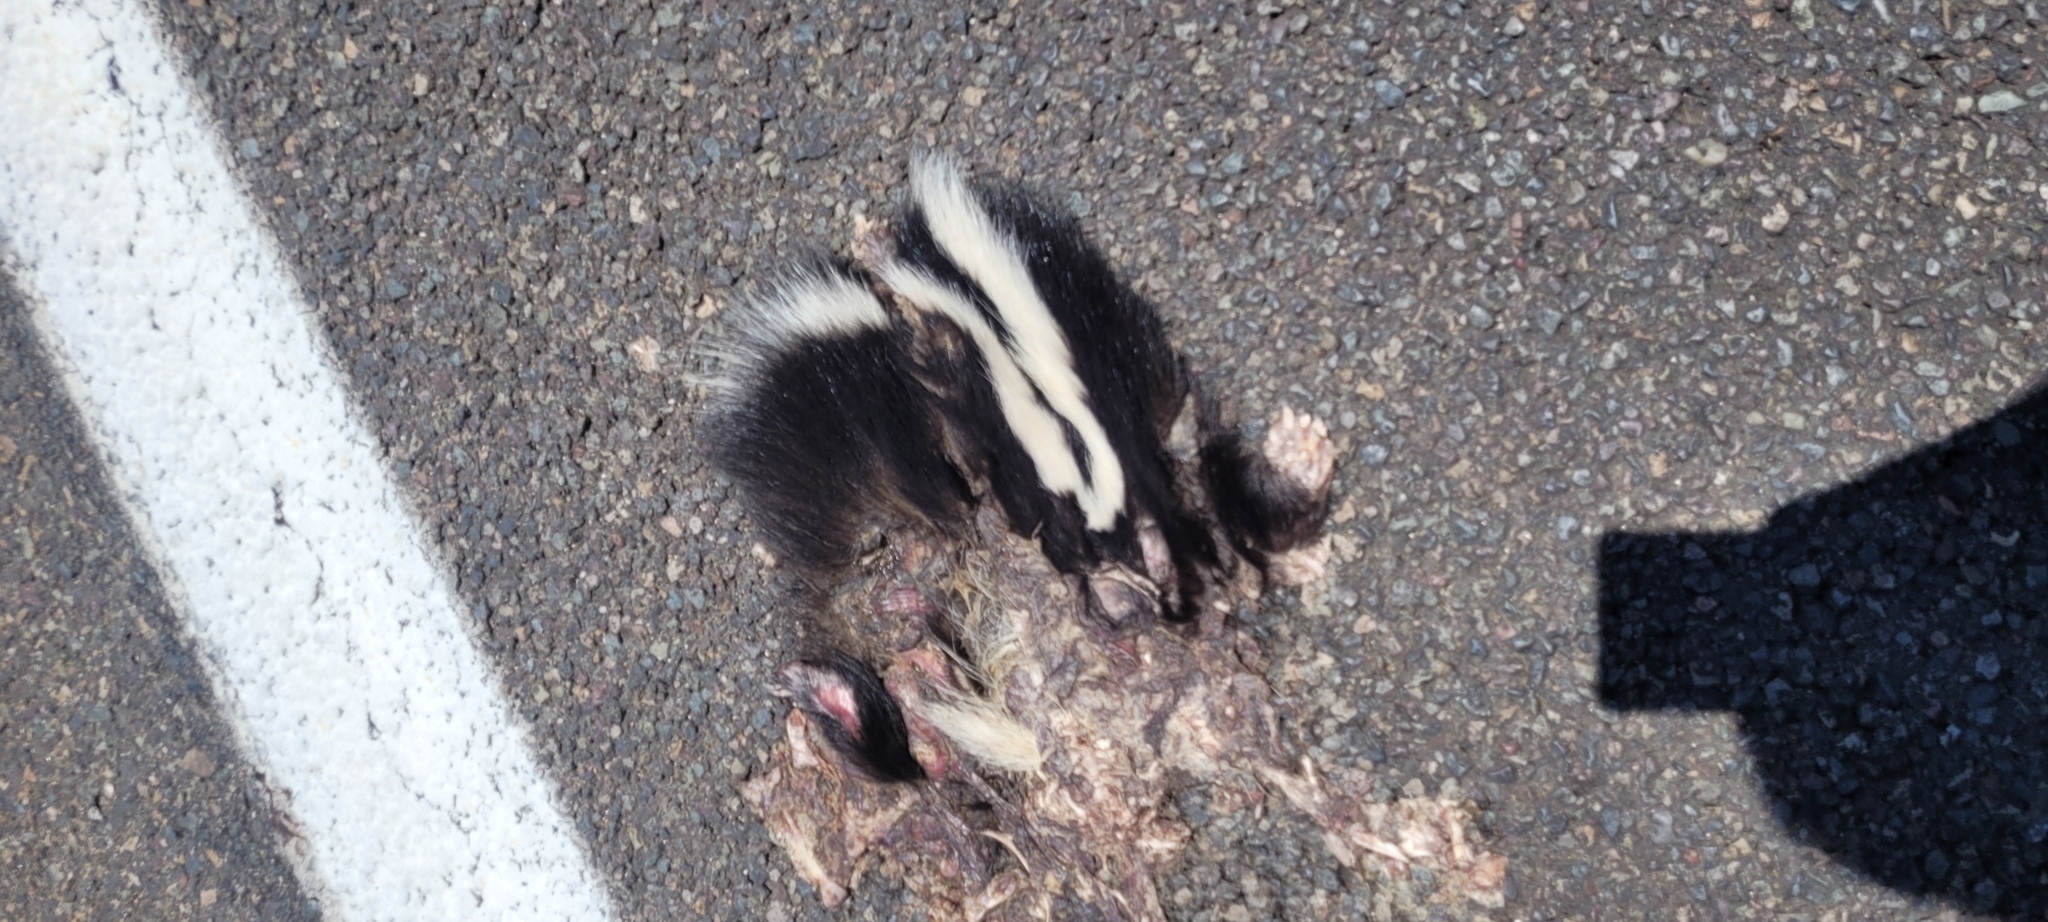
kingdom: Animalia
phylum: Chordata
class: Mammalia
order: Carnivora
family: Mephitidae
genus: Conepatus
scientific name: Conepatus chinga
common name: Molina's hog-nosed skunk
